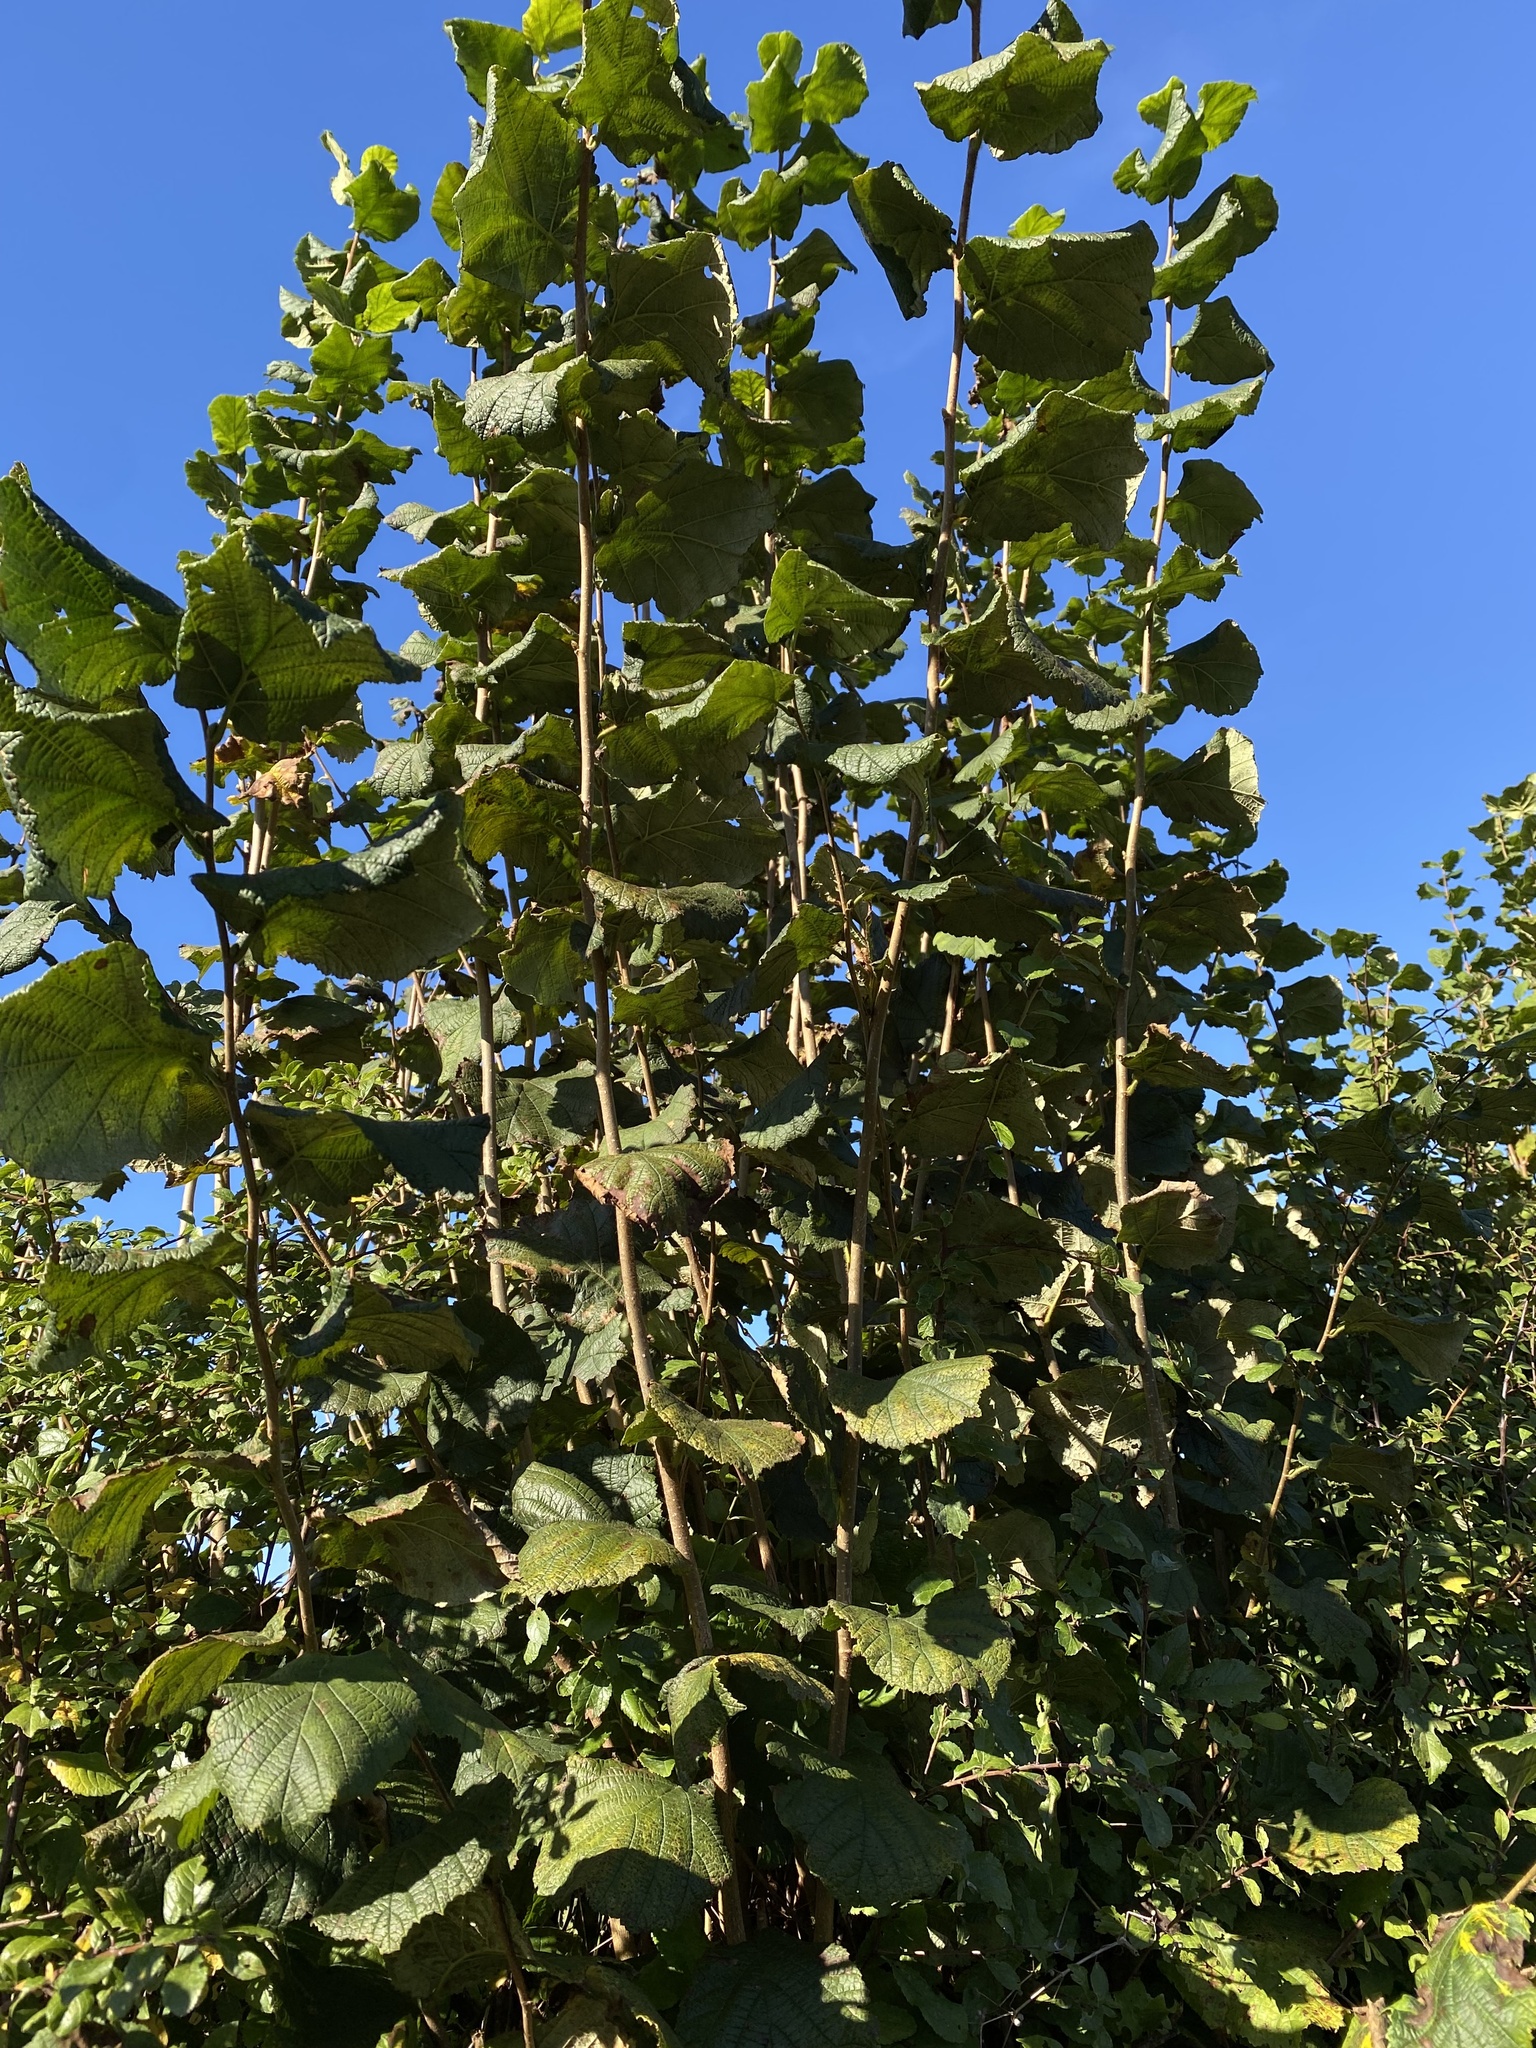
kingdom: Plantae
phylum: Tracheophyta
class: Magnoliopsida
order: Fagales
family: Betulaceae
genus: Corylus
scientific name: Corylus avellana
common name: European hazel
